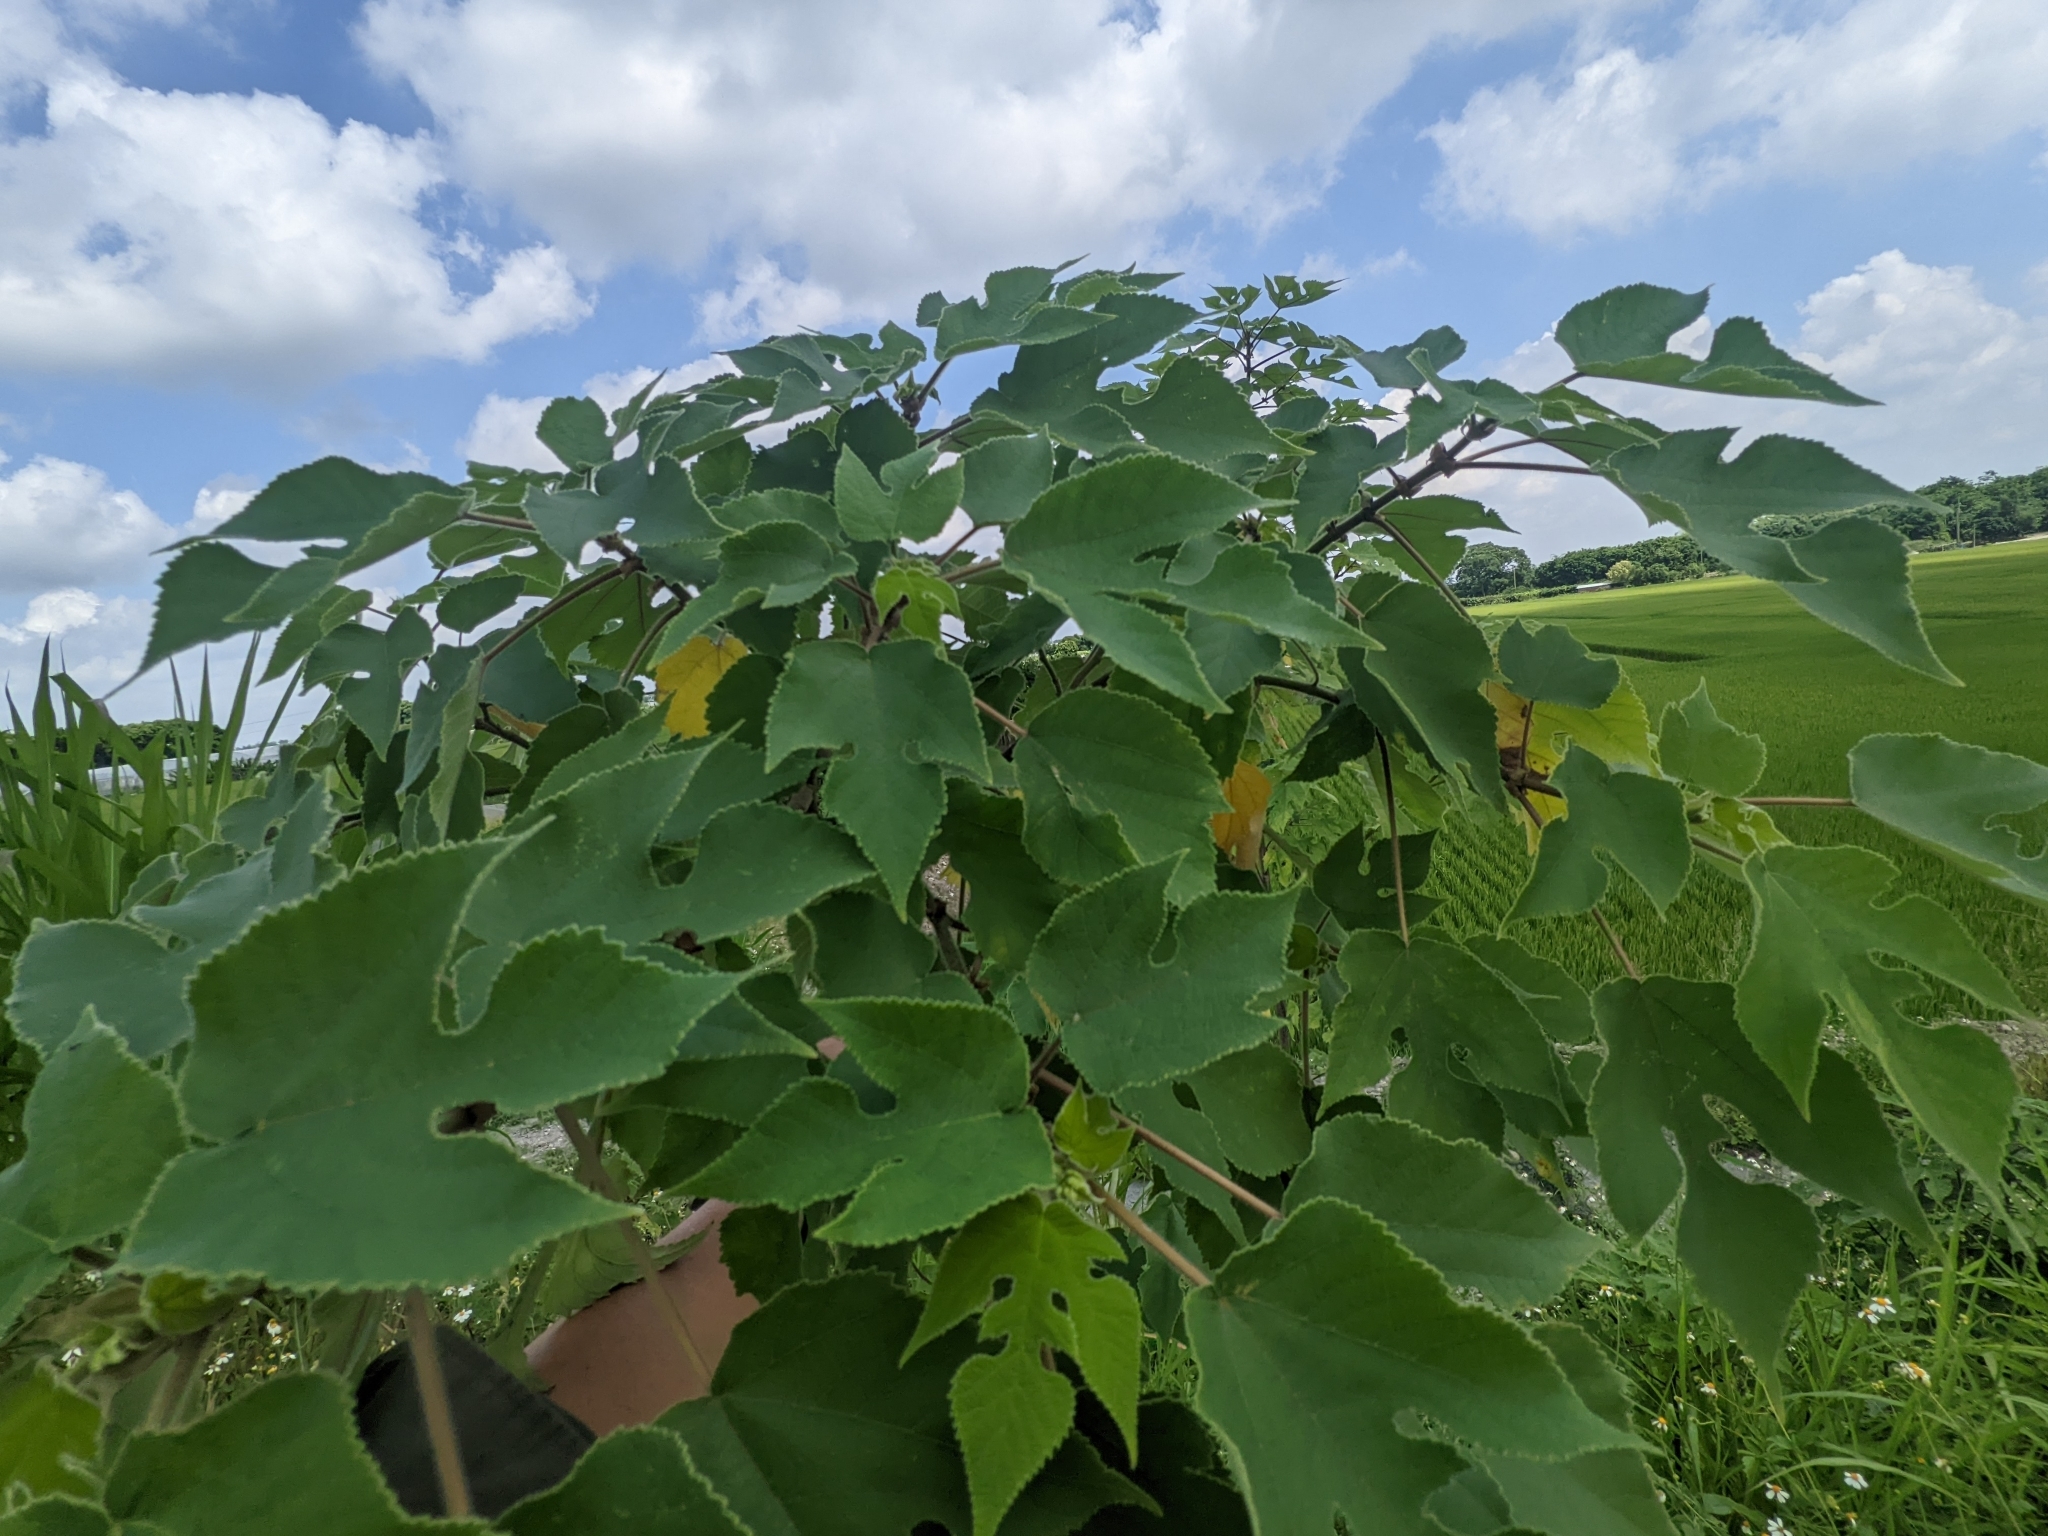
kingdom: Plantae
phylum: Tracheophyta
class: Magnoliopsida
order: Rosales
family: Moraceae
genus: Broussonetia
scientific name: Broussonetia papyrifera
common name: Paper mulberry
